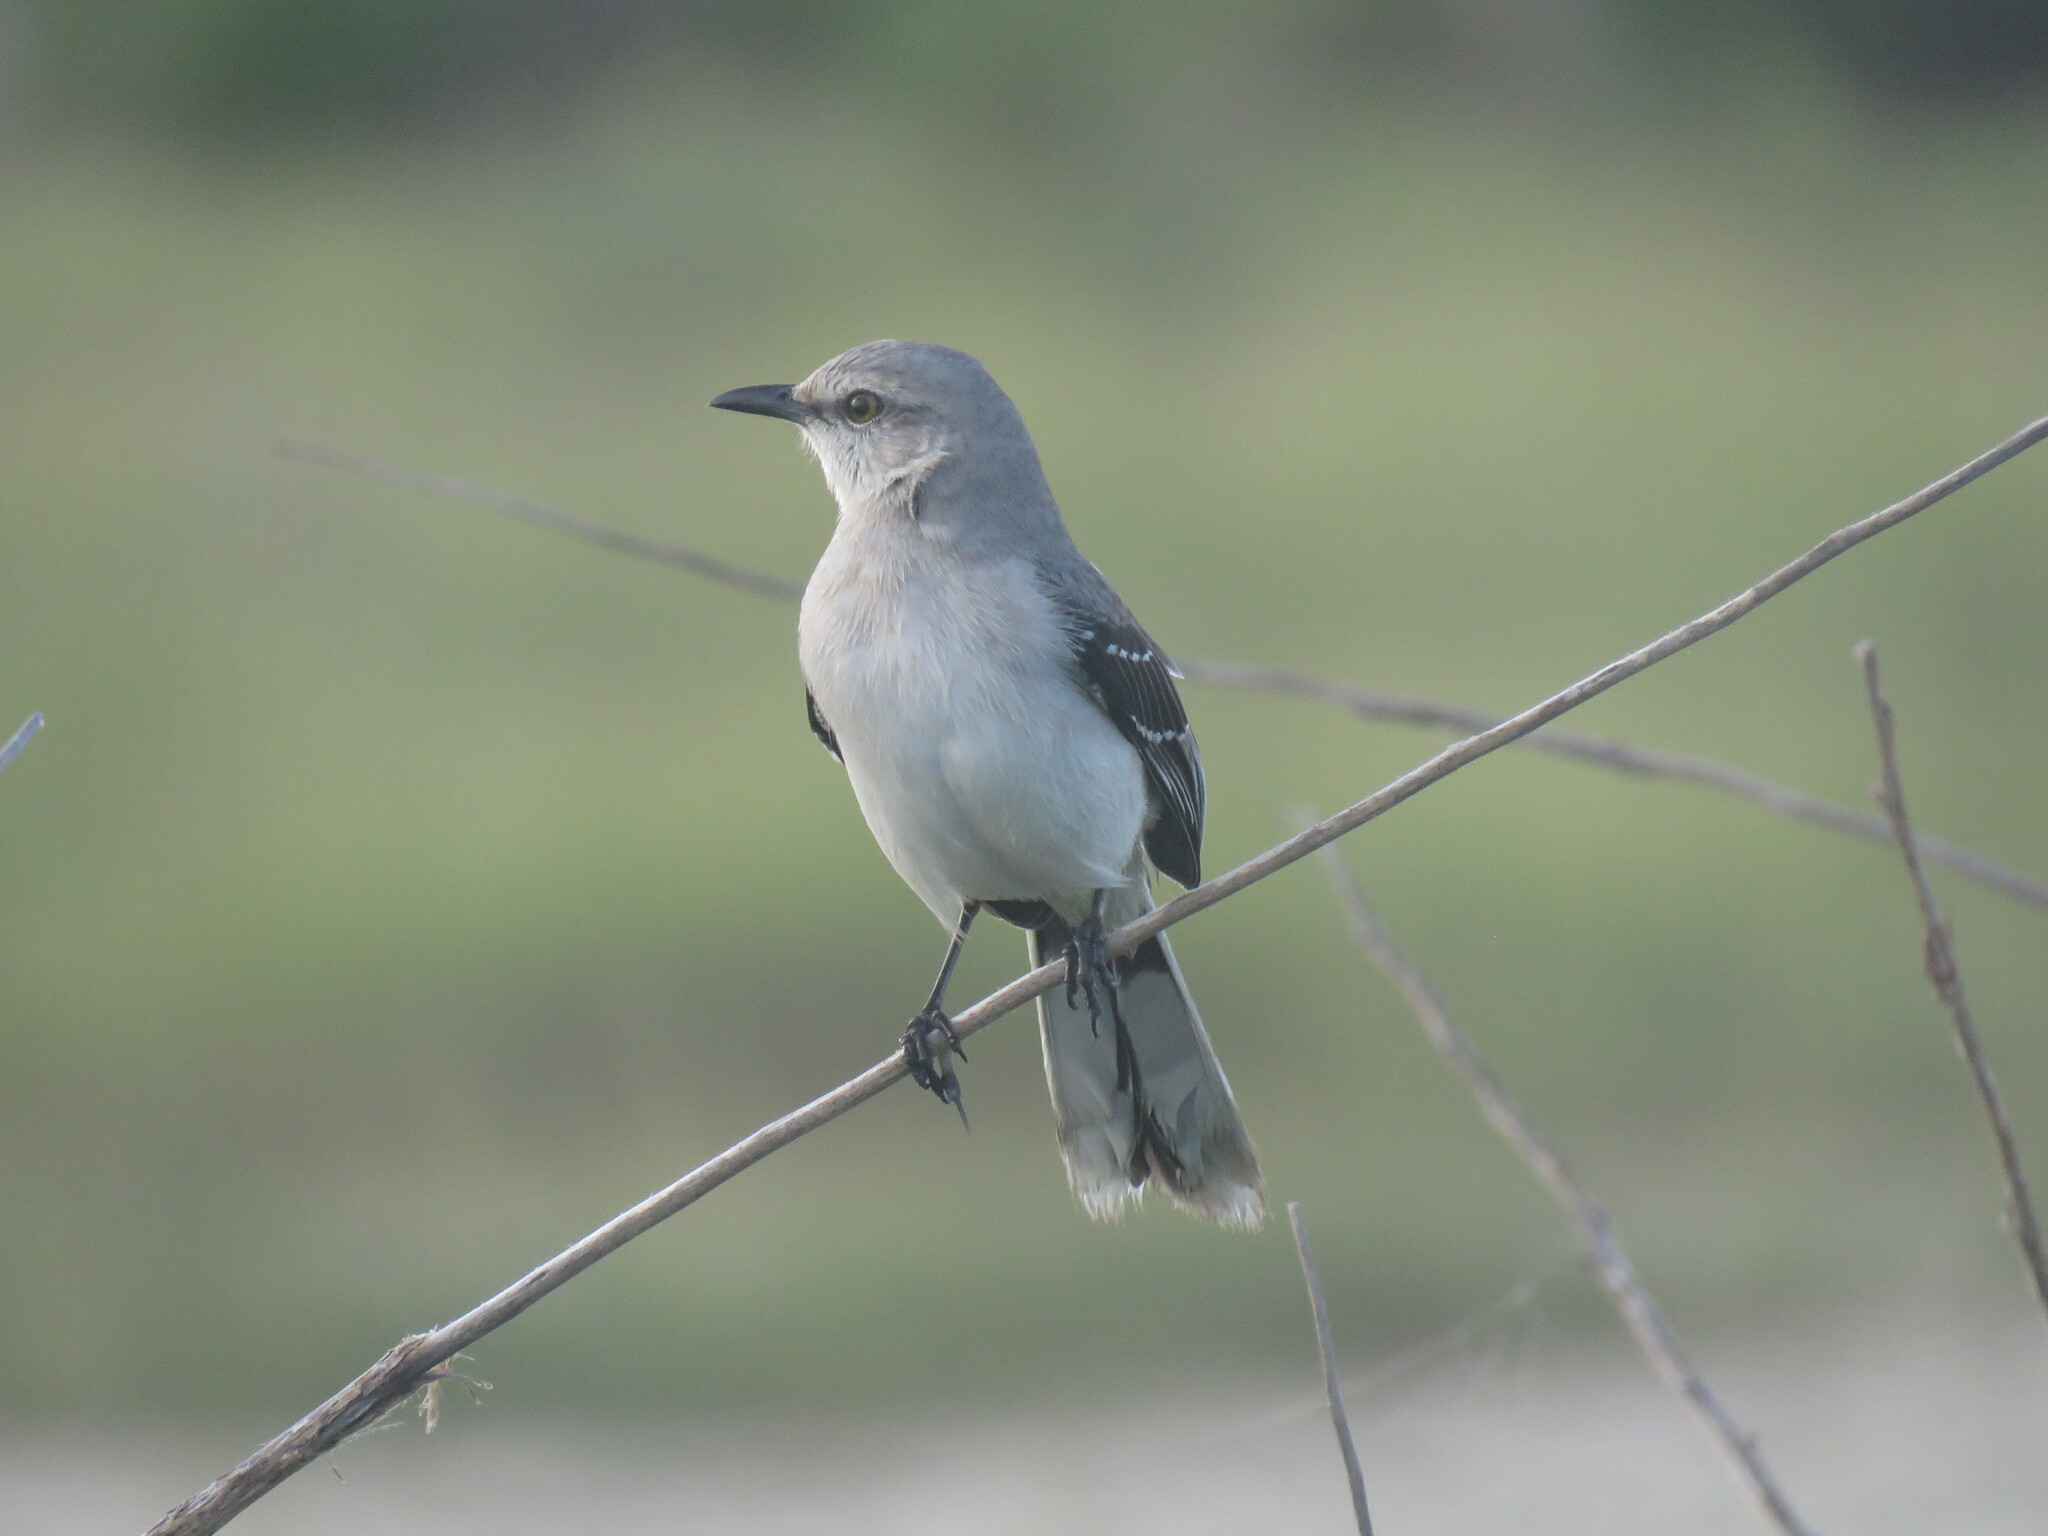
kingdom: Animalia
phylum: Chordata
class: Aves
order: Passeriformes
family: Mimidae
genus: Mimus
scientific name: Mimus gilvus
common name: Tropical mockingbird
